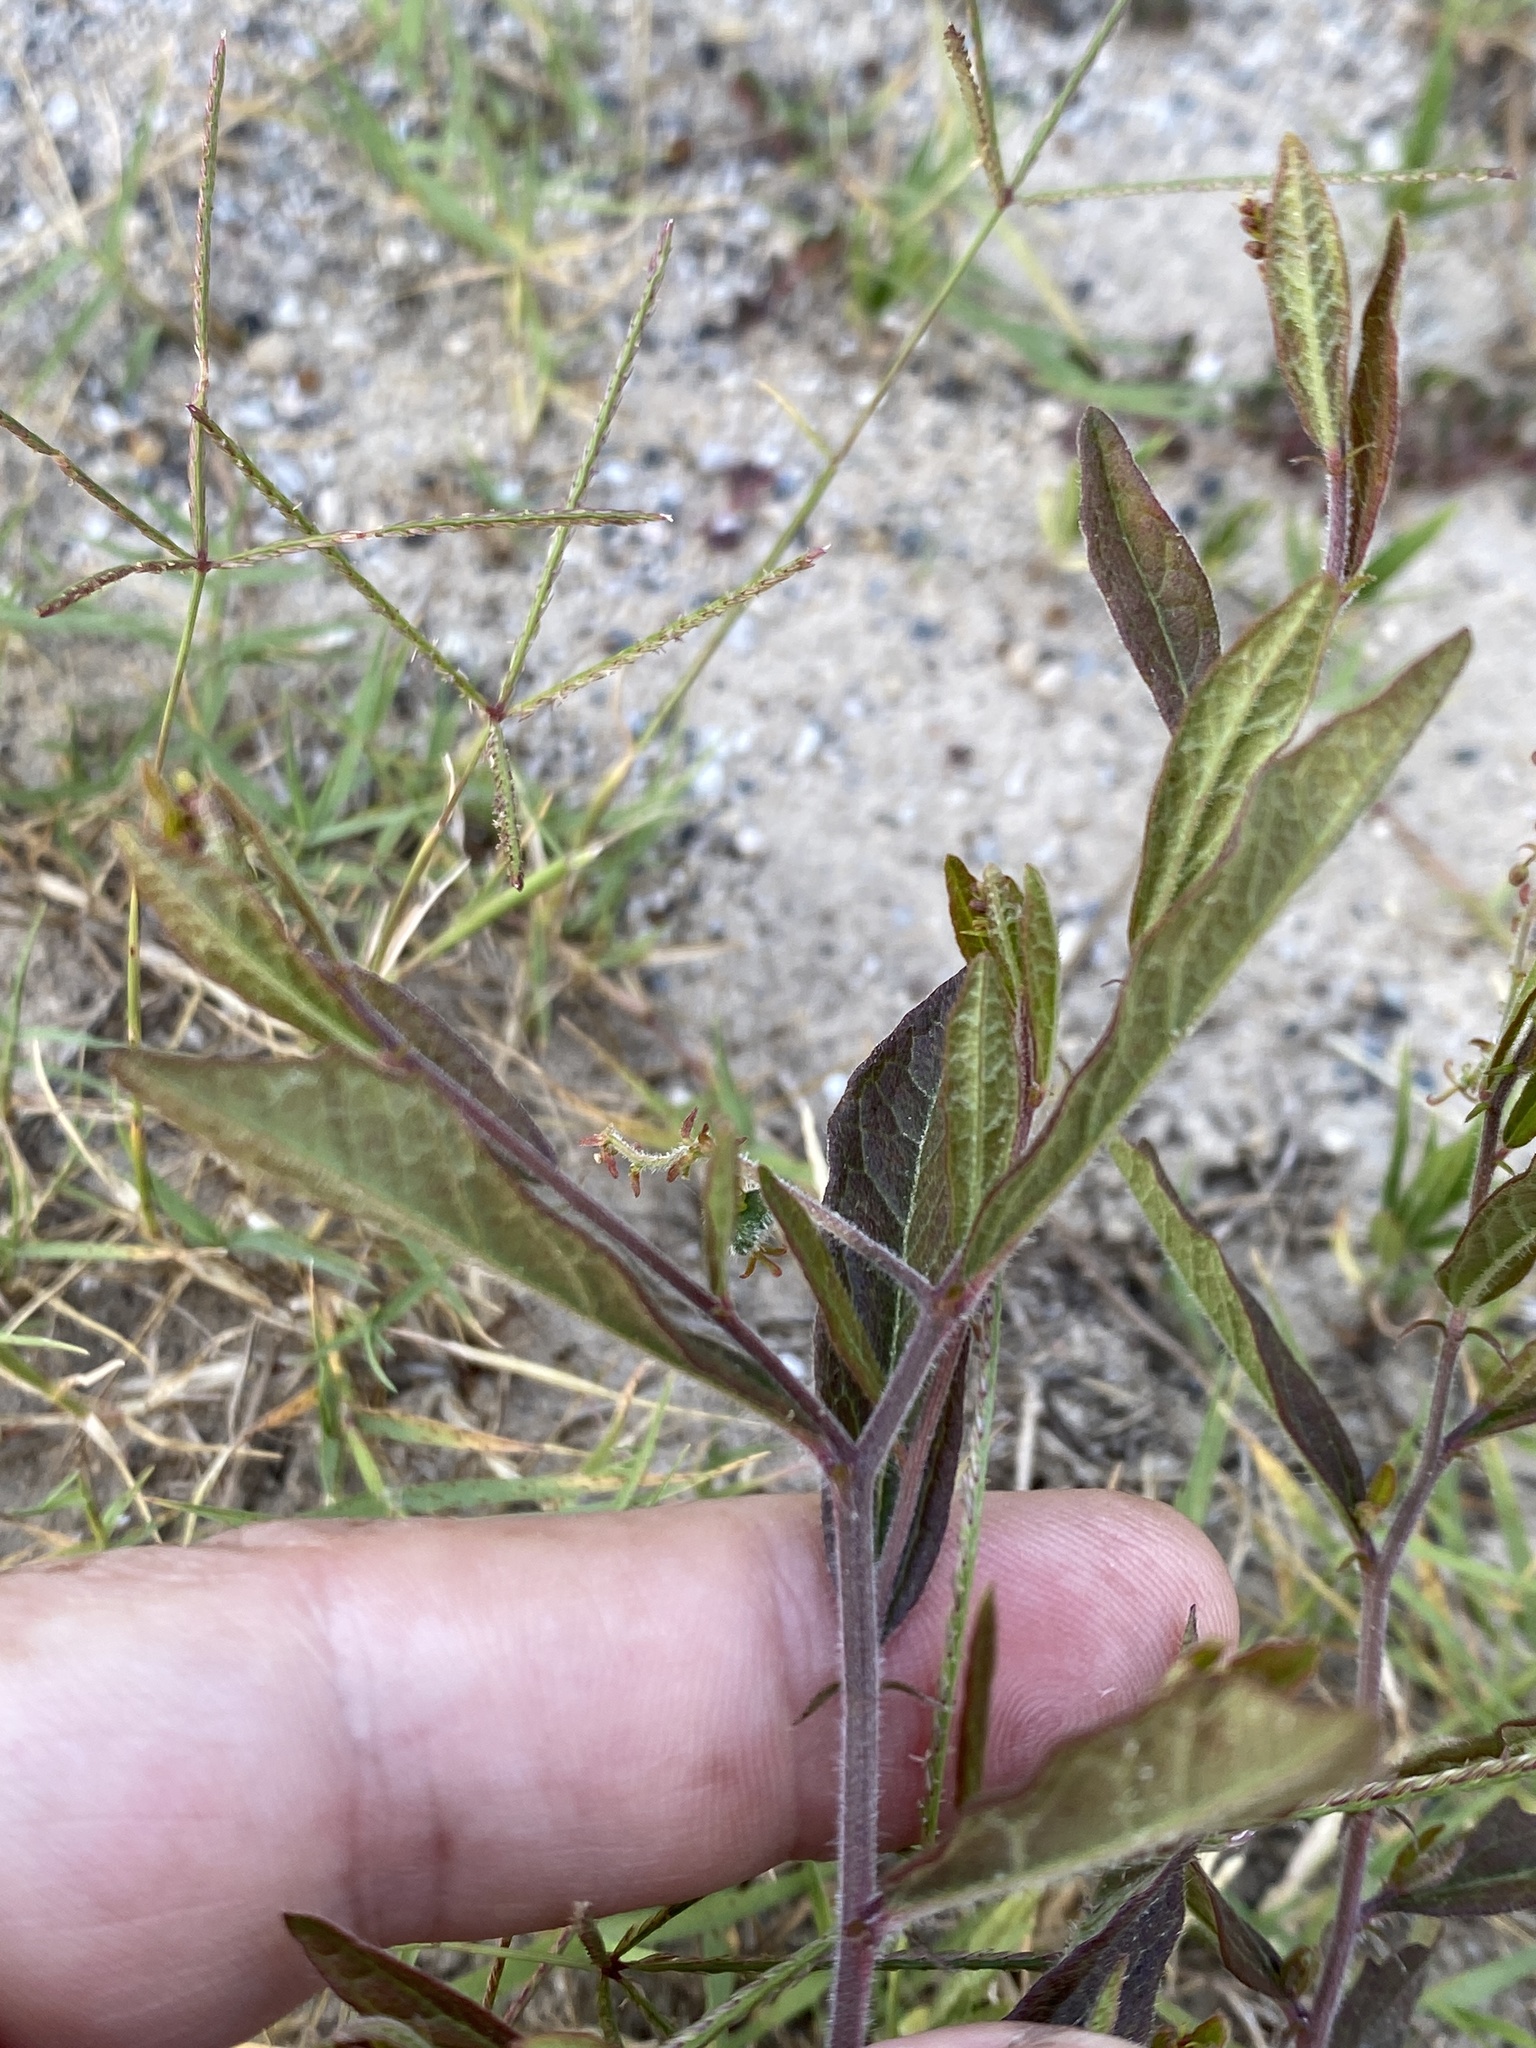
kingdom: Plantae
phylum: Tracheophyta
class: Magnoliopsida
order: Malpighiales
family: Euphorbiaceae
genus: Tragia
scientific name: Tragia urens
